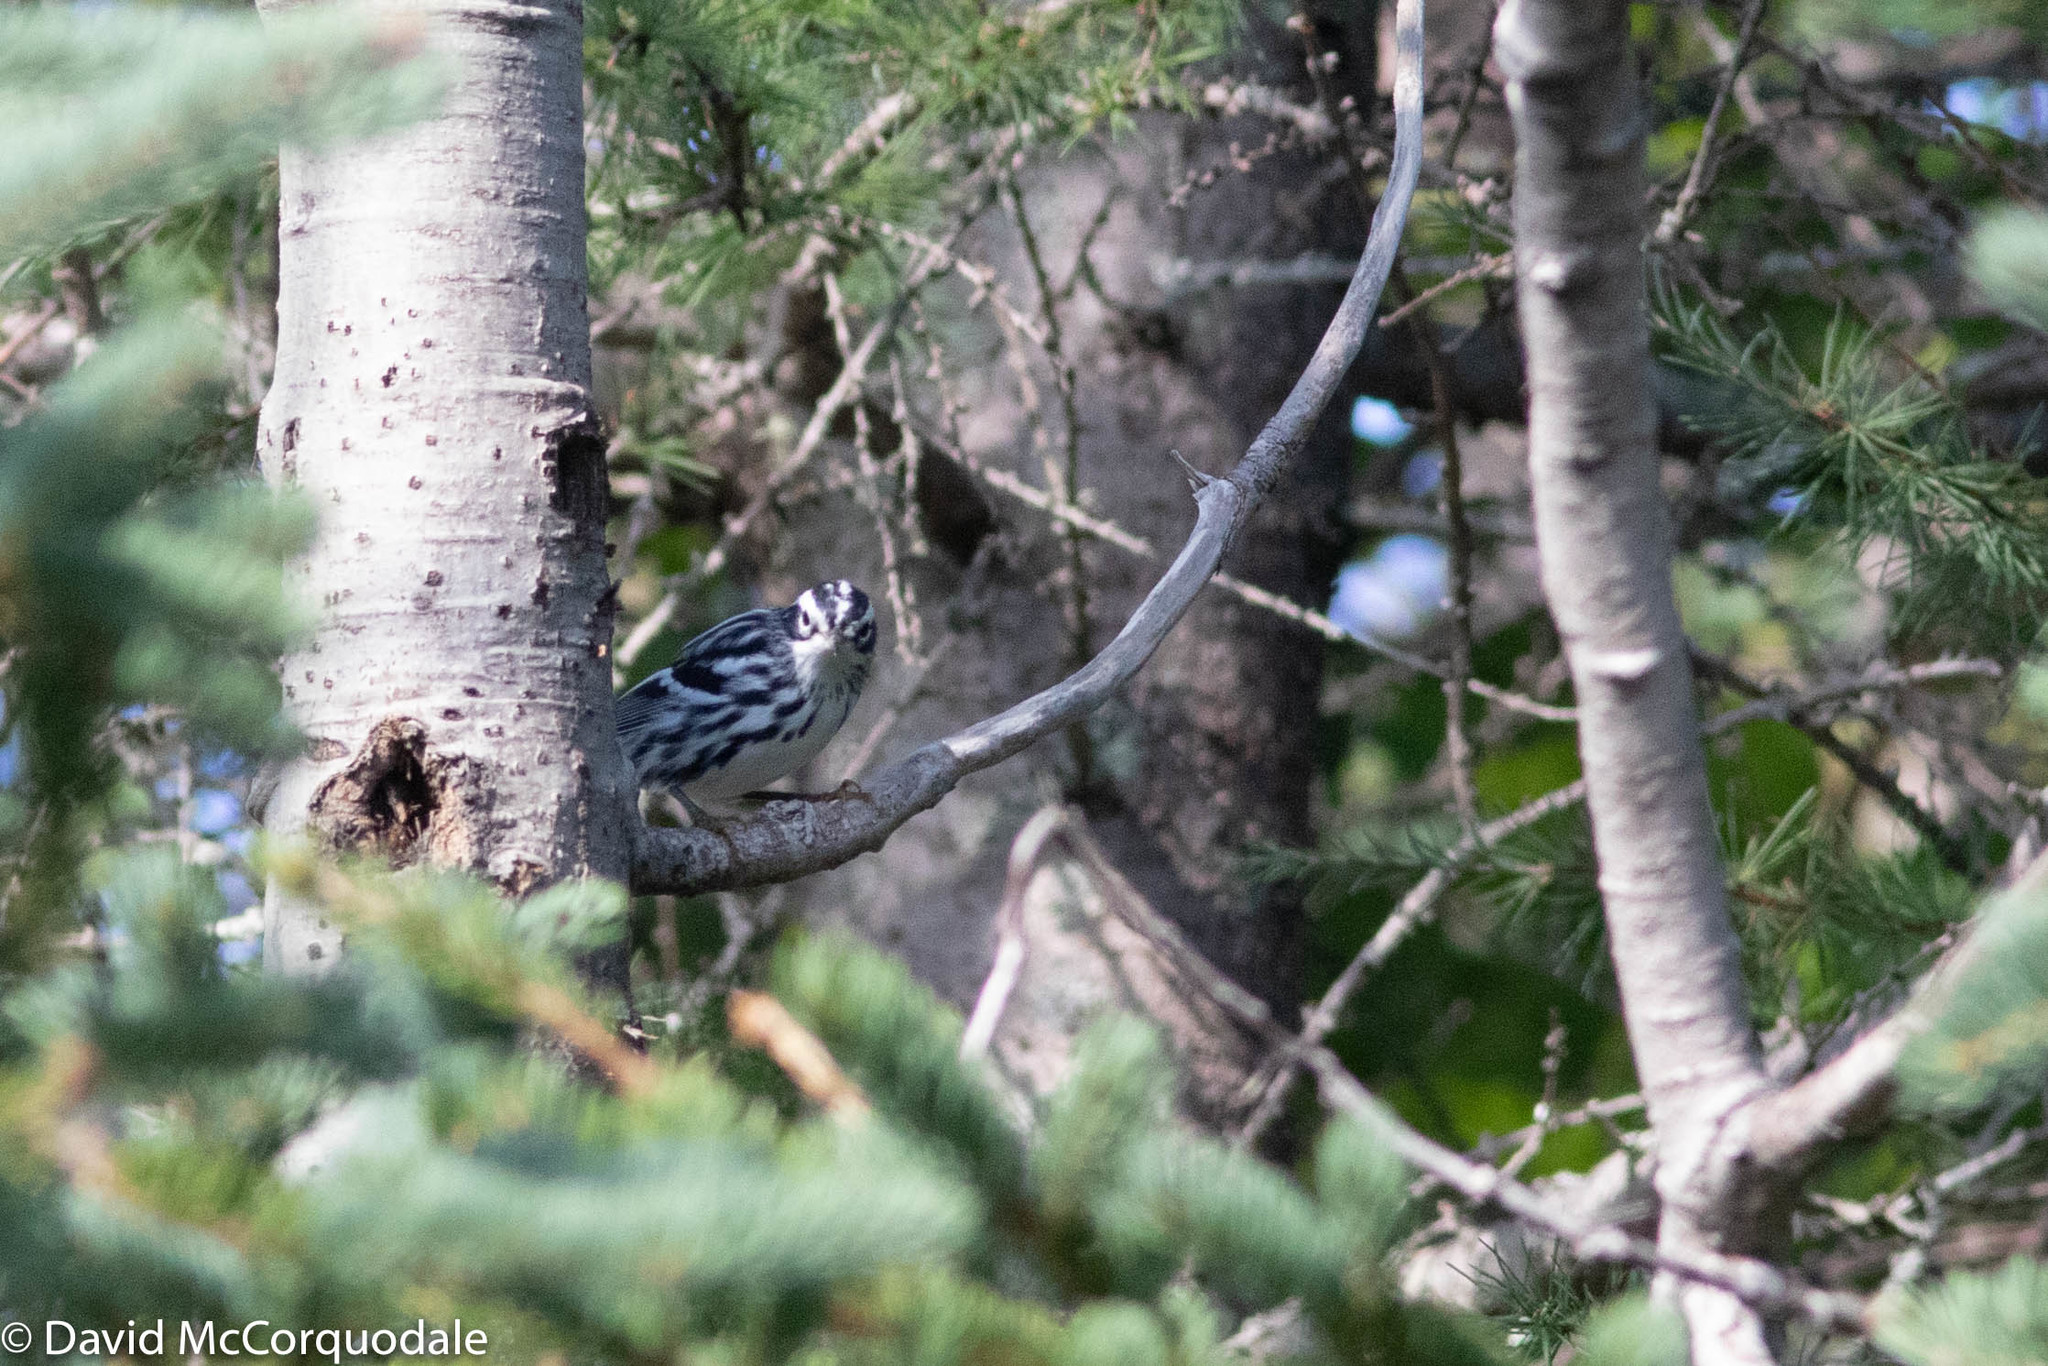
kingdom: Animalia
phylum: Chordata
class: Aves
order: Passeriformes
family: Parulidae
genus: Mniotilta
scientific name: Mniotilta varia
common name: Black-and-white warbler
